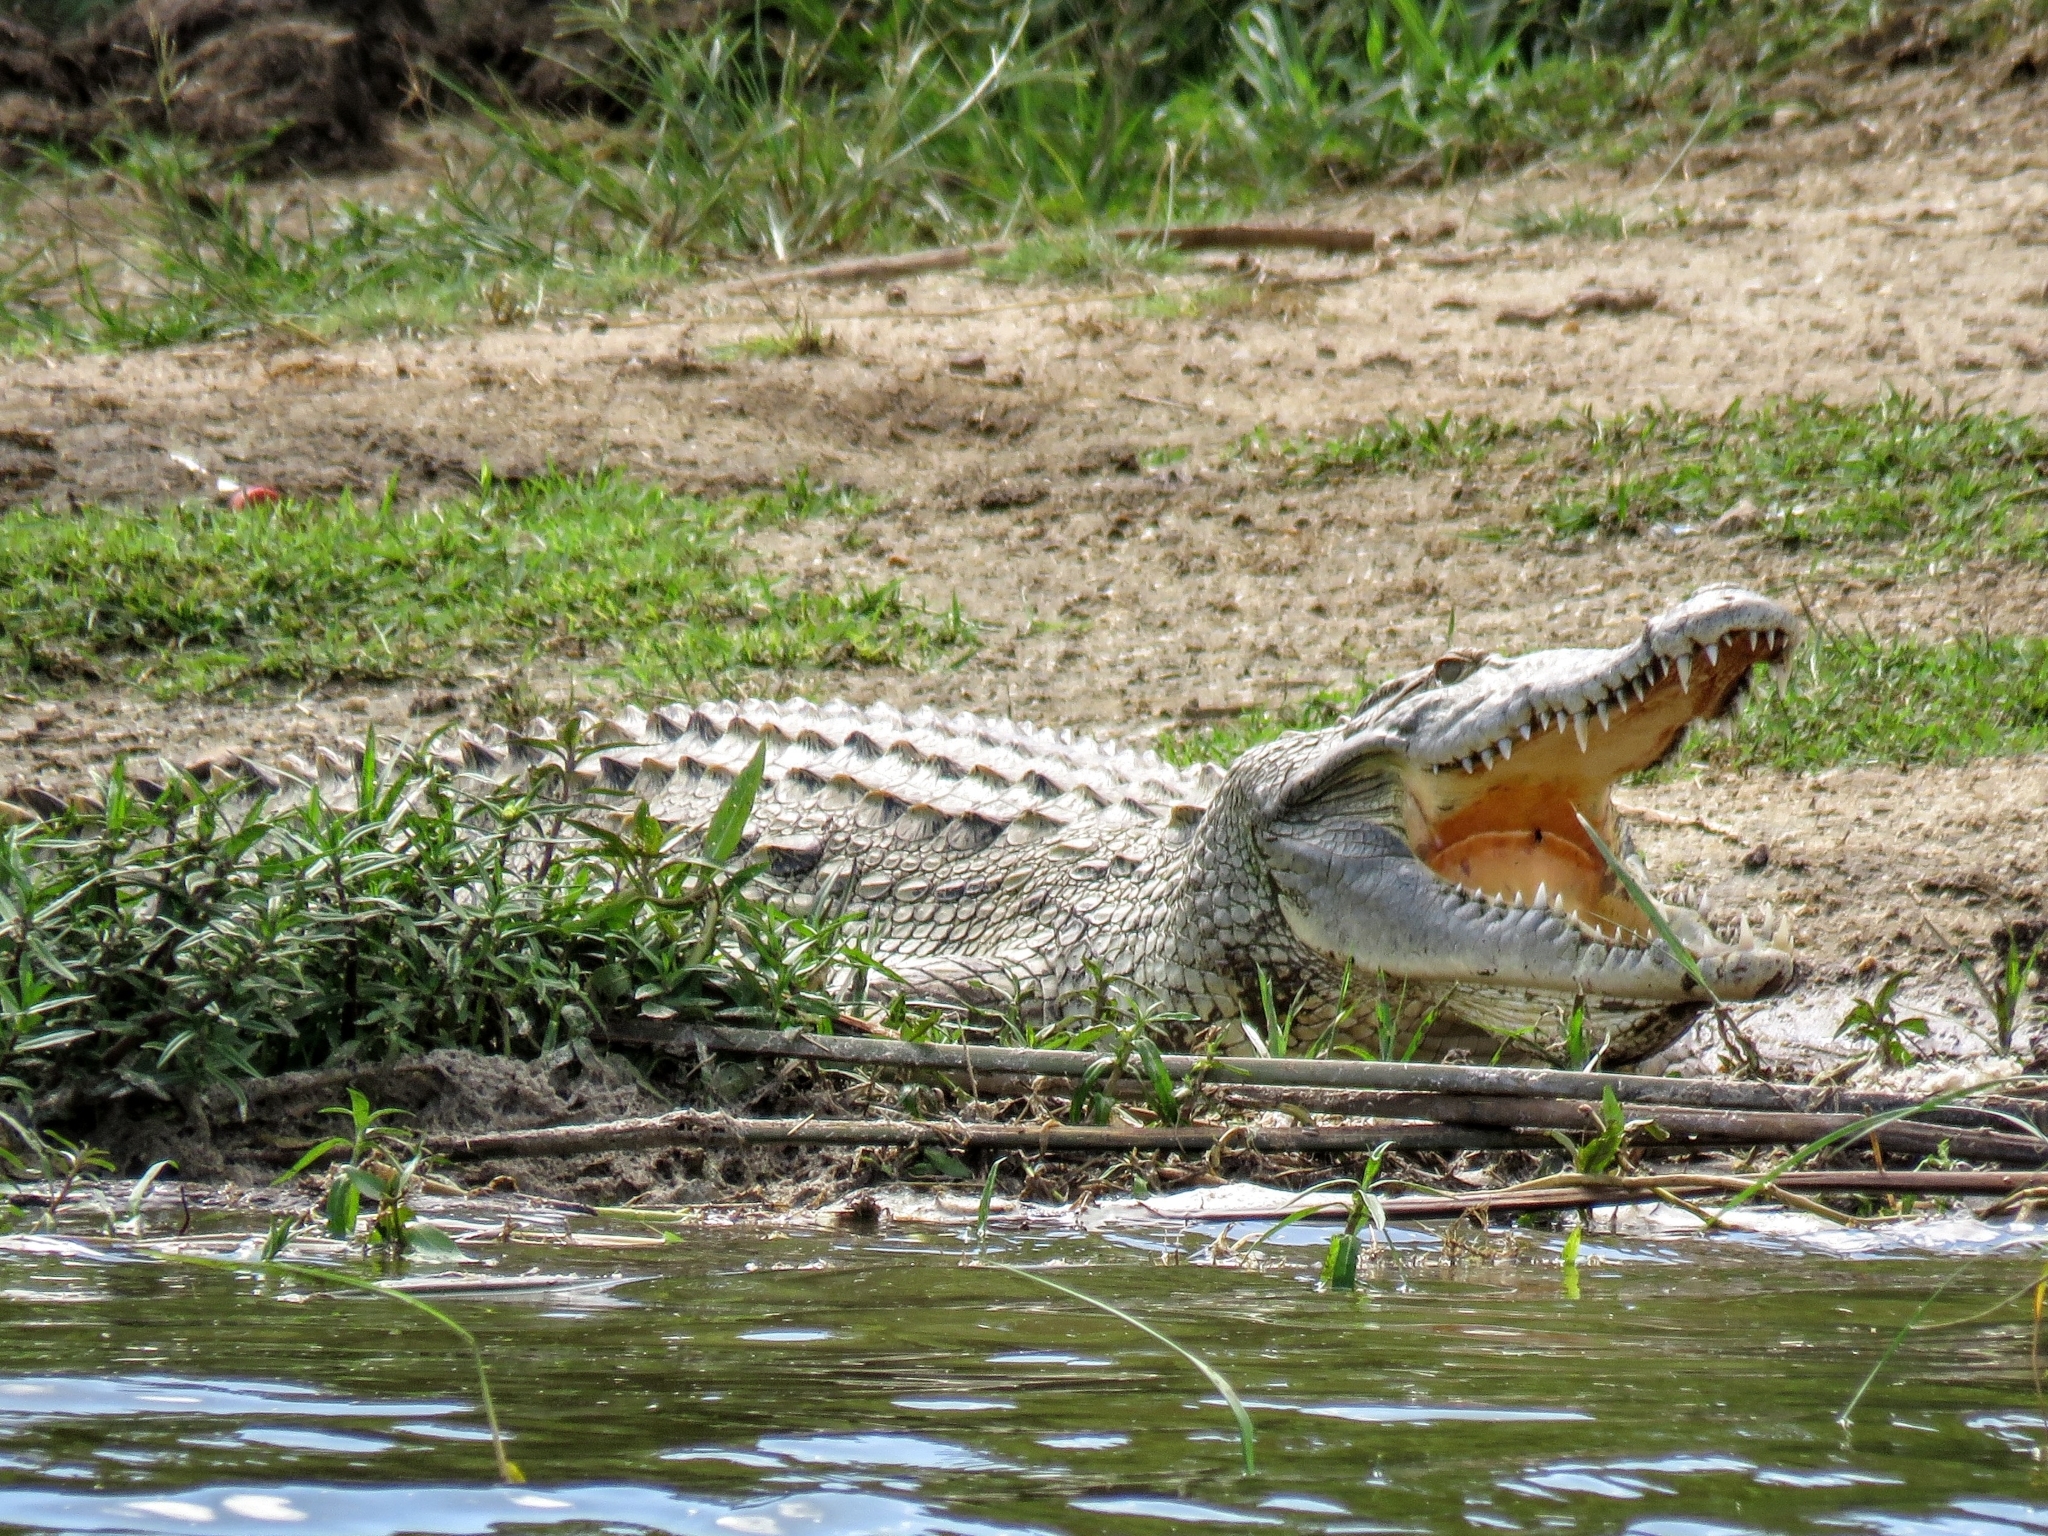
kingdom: Animalia
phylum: Chordata
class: Crocodylia
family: Crocodylidae
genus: Crocodylus
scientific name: Crocodylus niloticus
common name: Nile crocodile
